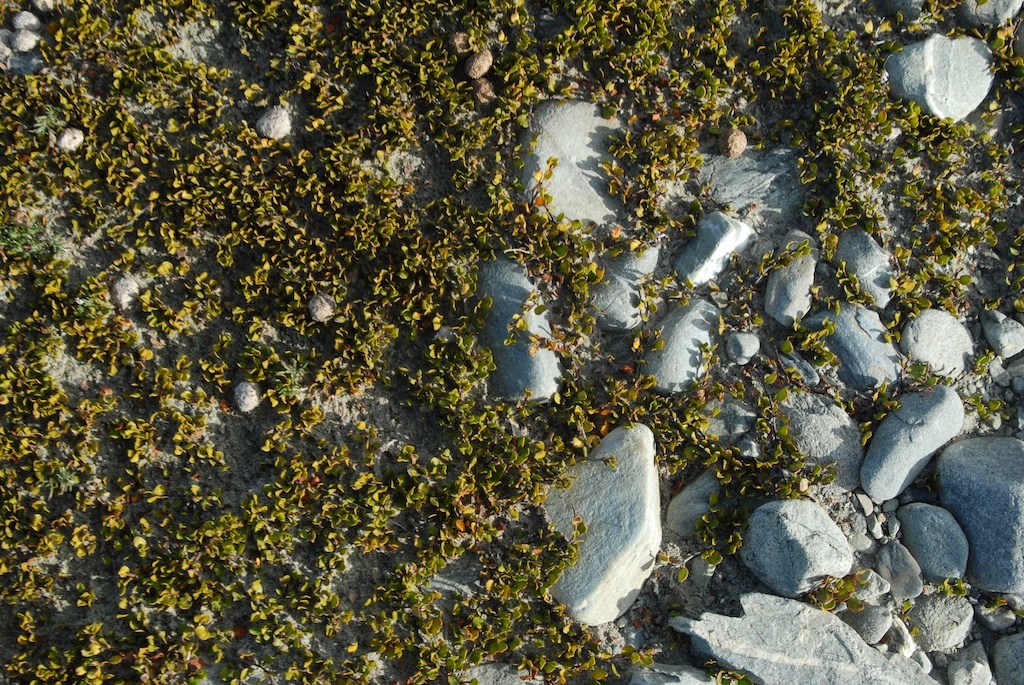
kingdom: Plantae
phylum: Tracheophyta
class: Magnoliopsida
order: Caryophyllales
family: Polygonaceae
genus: Muehlenbeckia
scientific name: Muehlenbeckia axillaris
